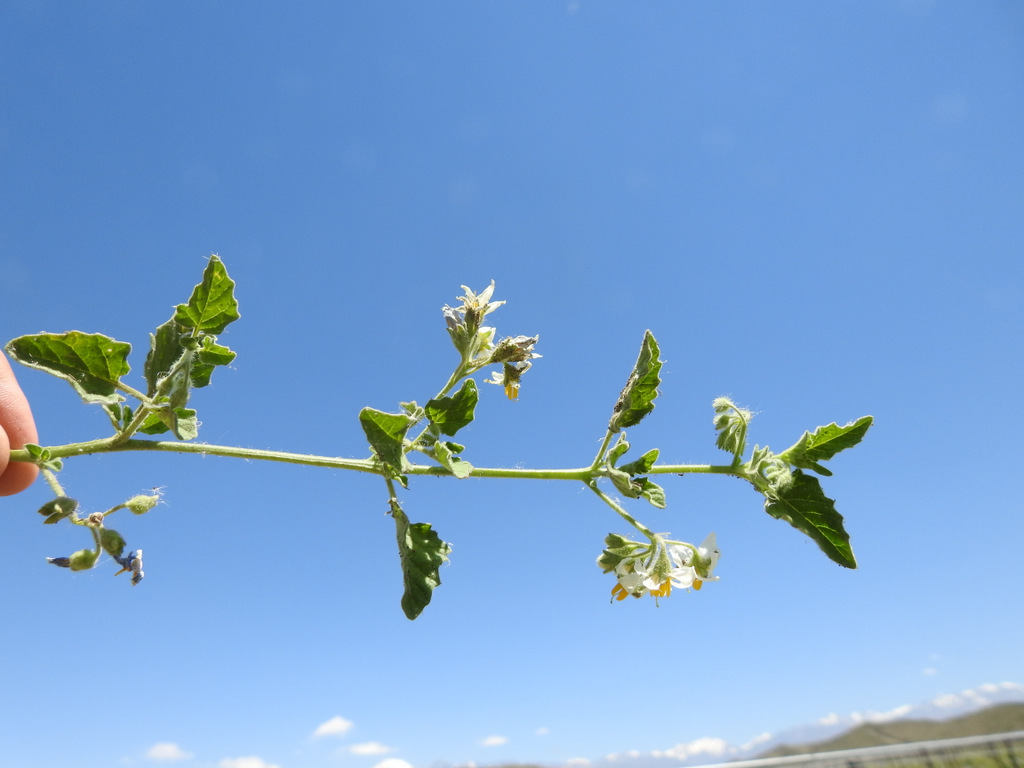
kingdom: Plantae
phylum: Tracheophyta
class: Magnoliopsida
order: Solanales
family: Solanaceae
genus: Solanum
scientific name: Solanum tweedianum
